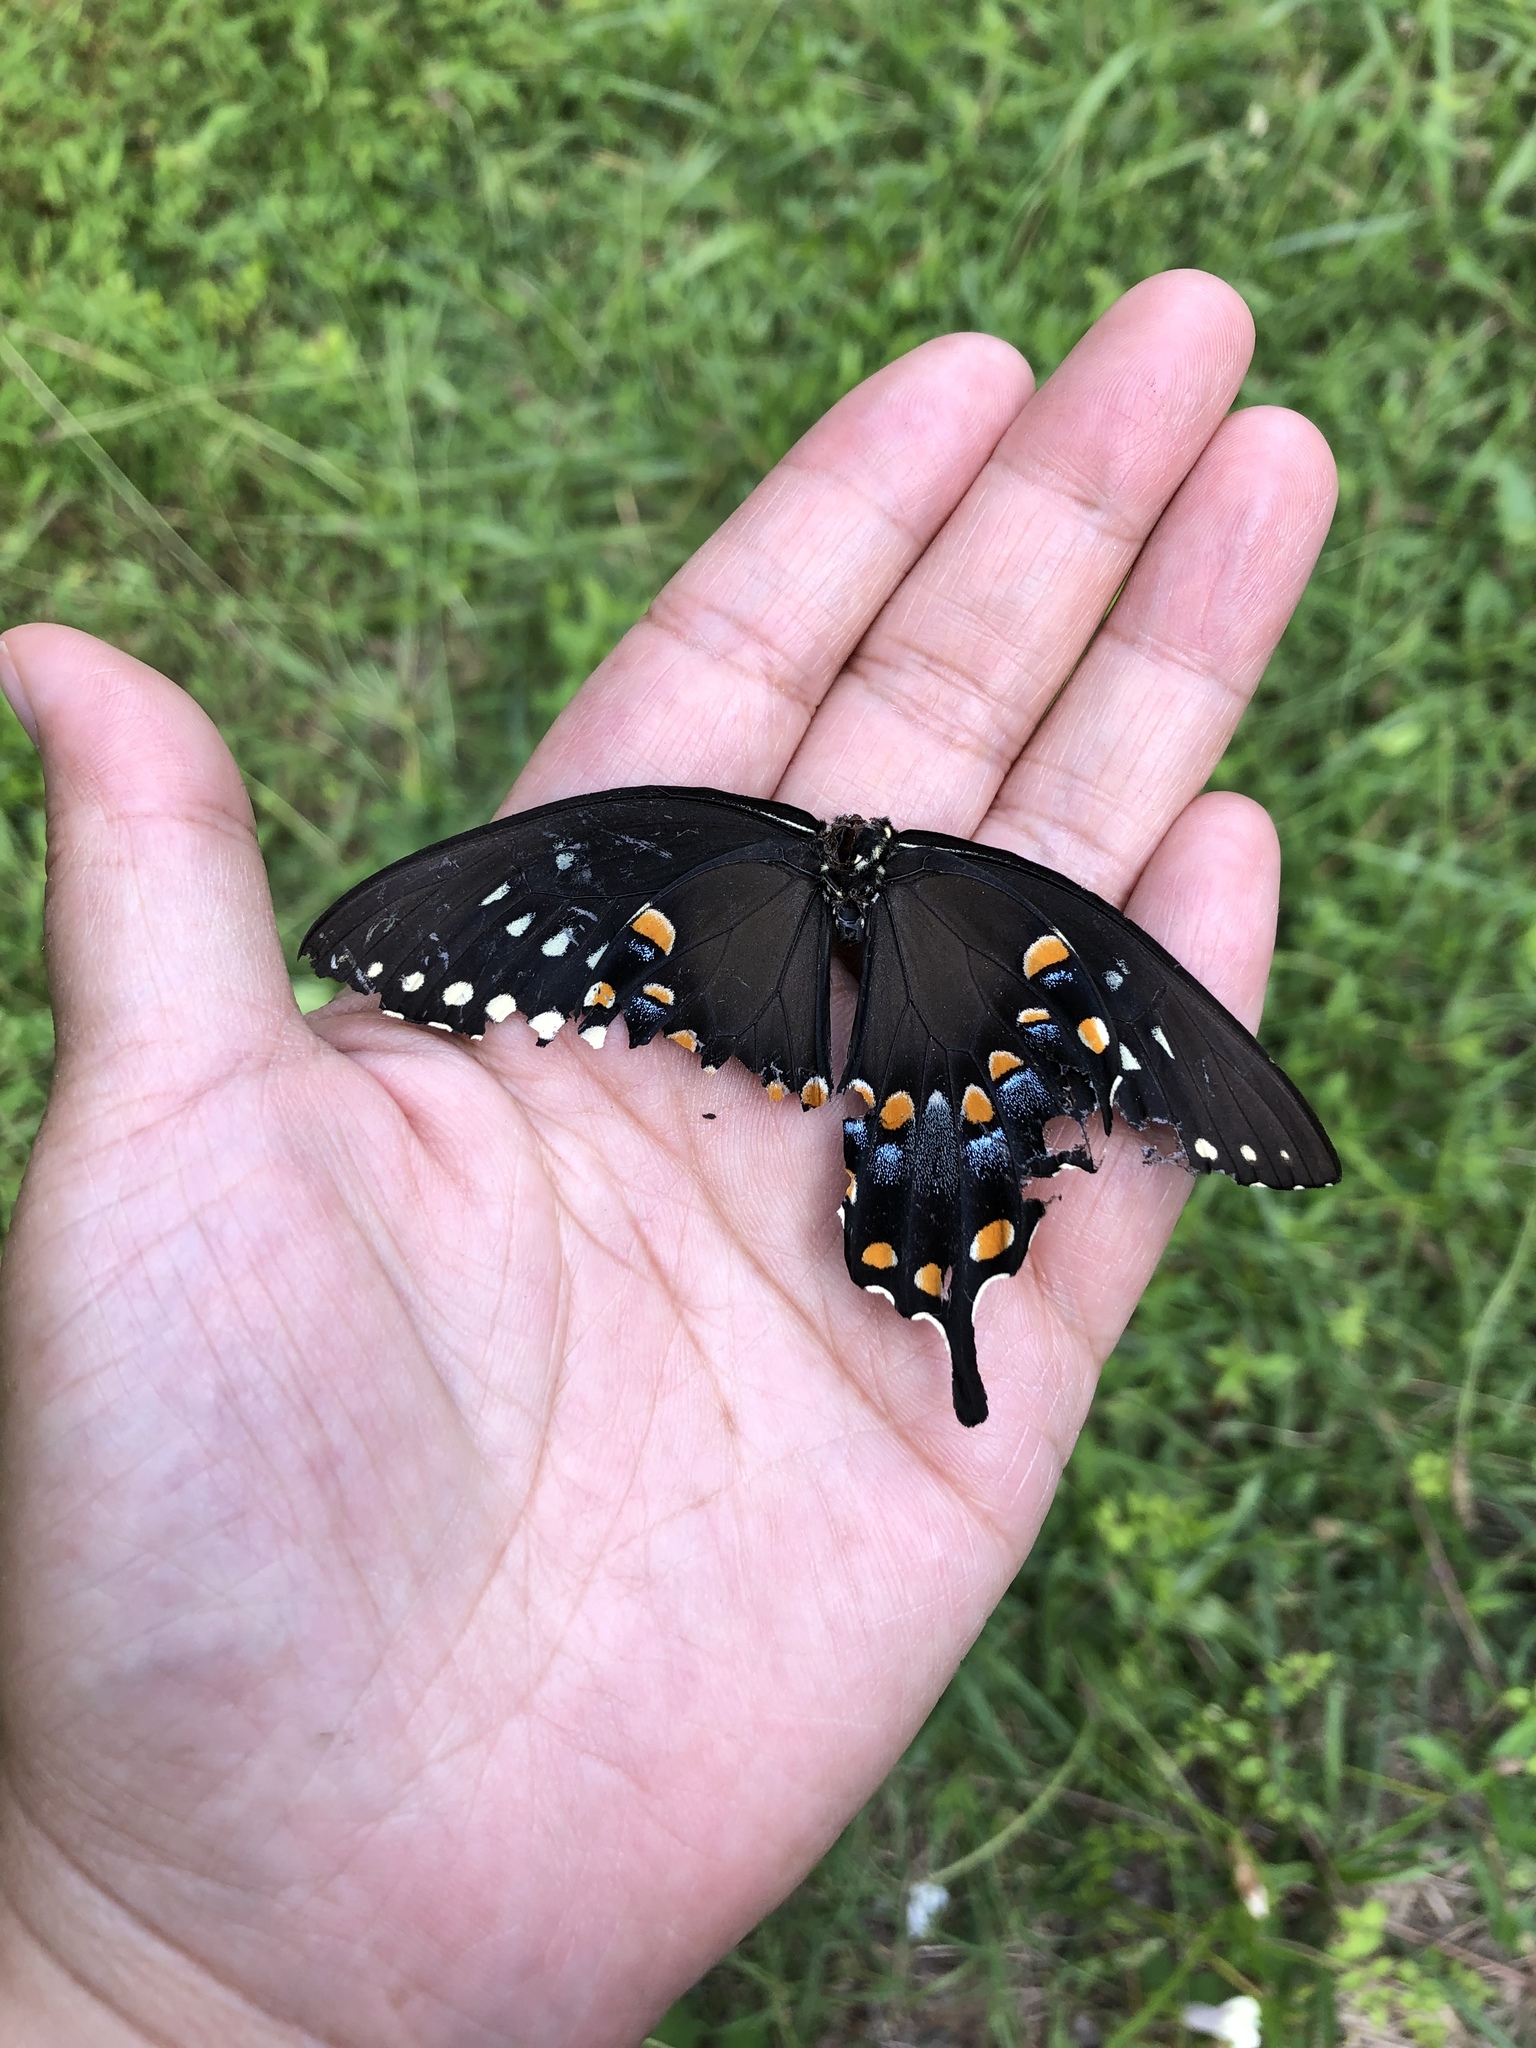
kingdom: Animalia
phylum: Arthropoda
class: Insecta
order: Lepidoptera
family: Papilionidae
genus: Papilio
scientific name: Papilio troilus
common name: Spicebush swallowtail
